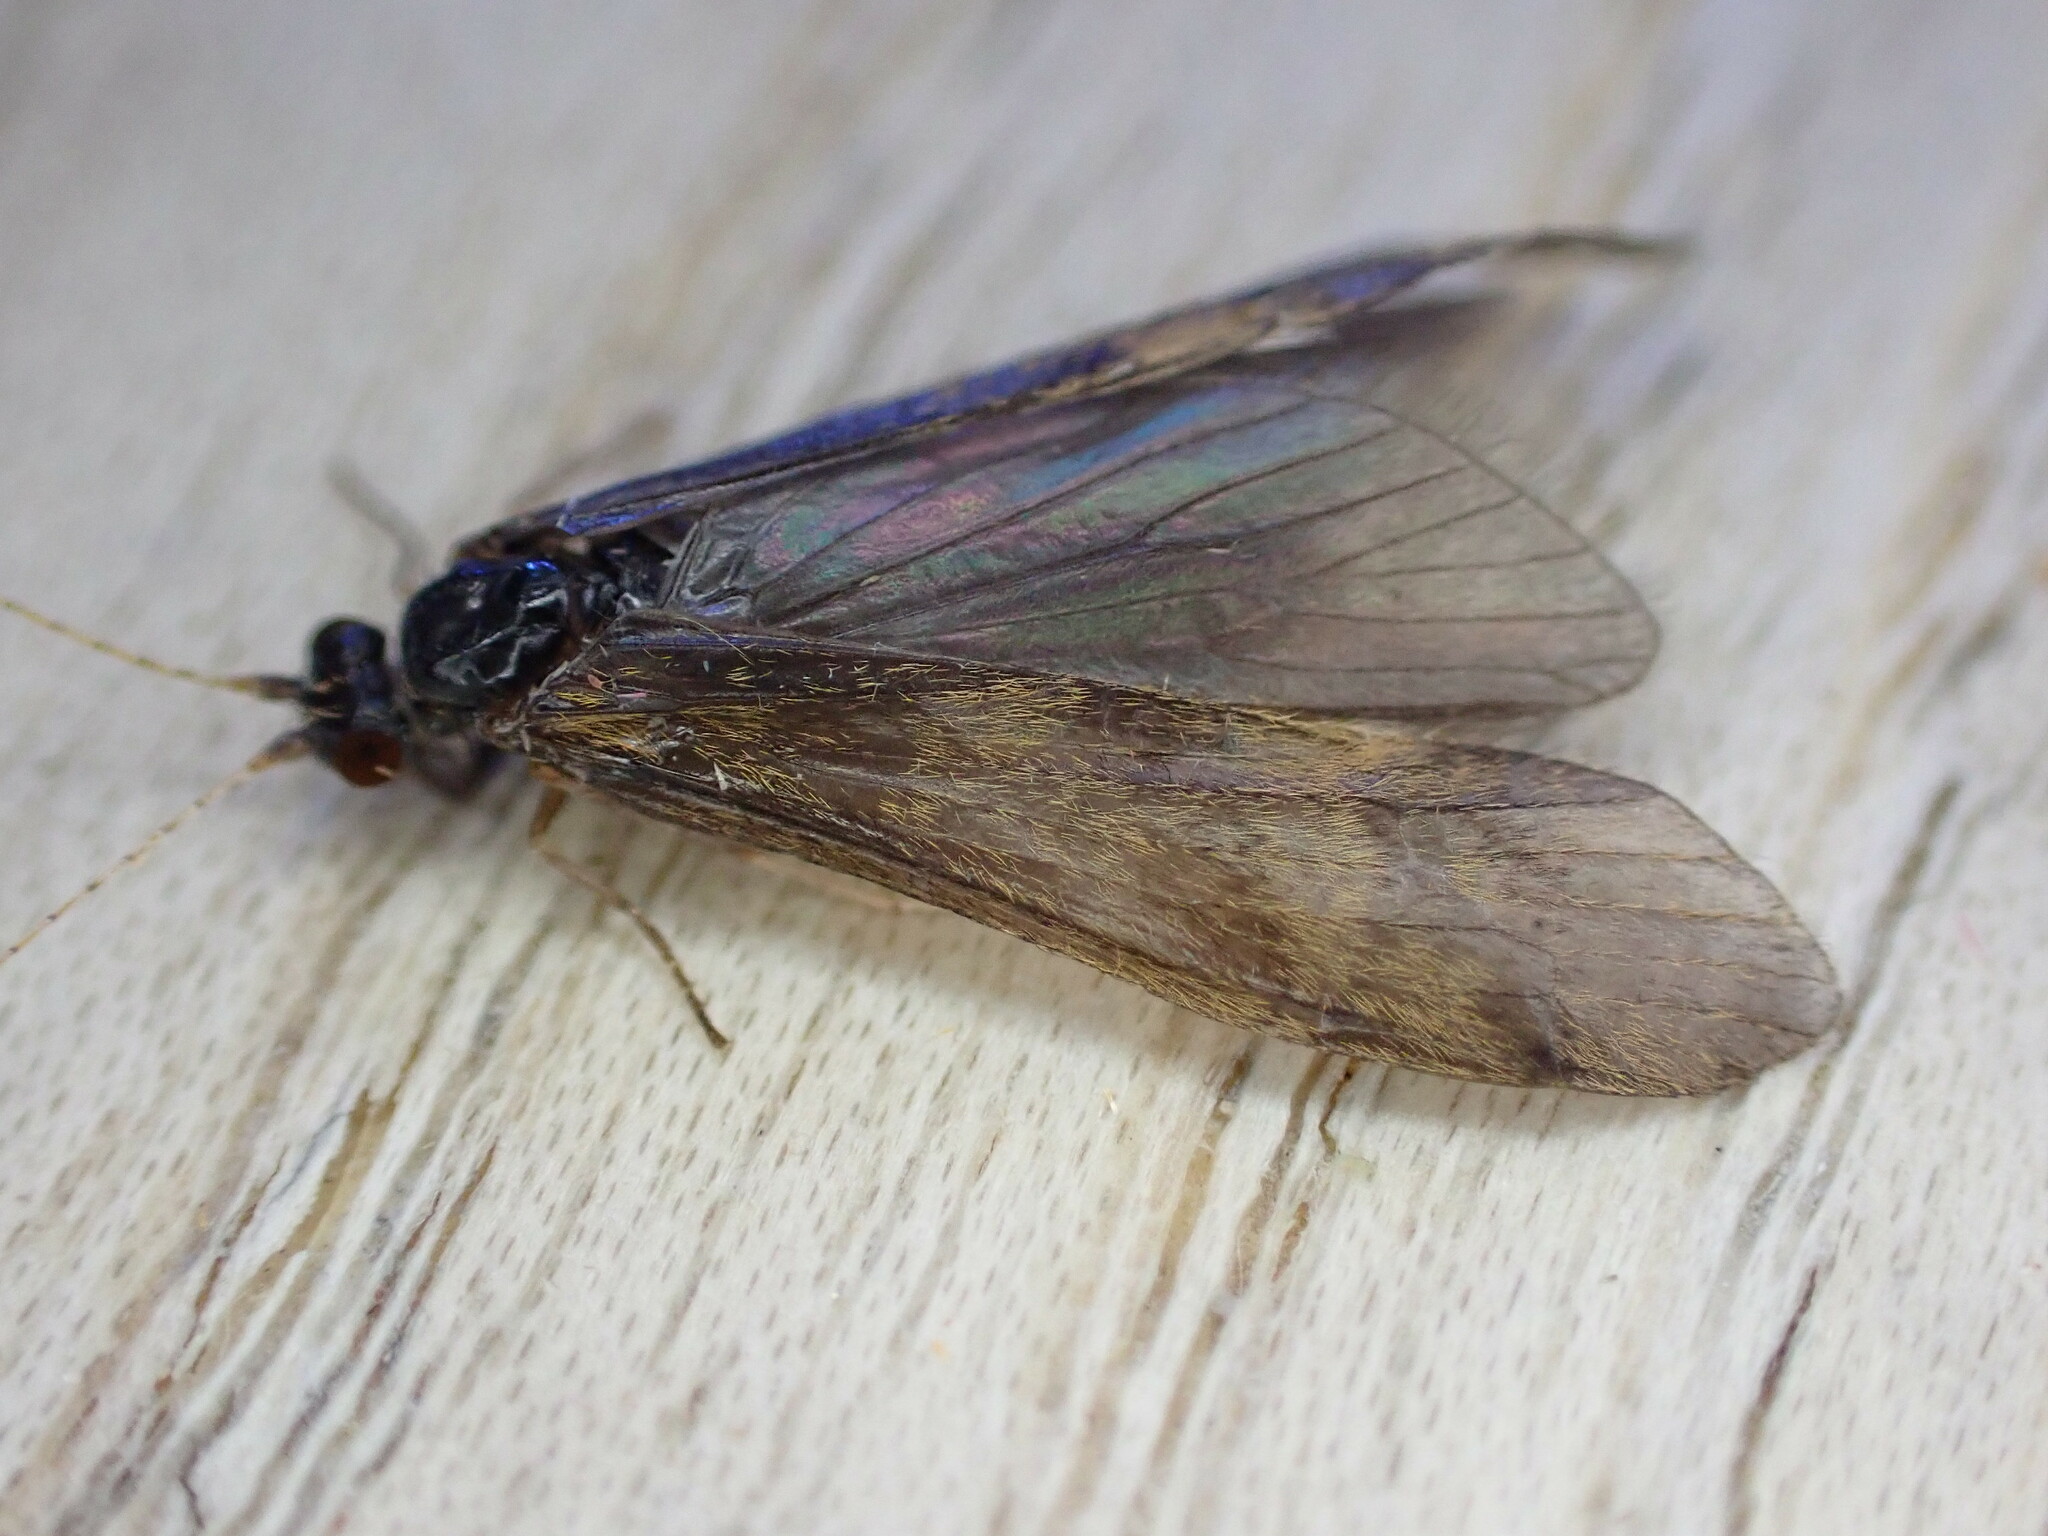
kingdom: Animalia
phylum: Arthropoda
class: Insecta
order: Trichoptera
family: Leptoceridae
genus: Mystacides
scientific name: Mystacides longicornis
